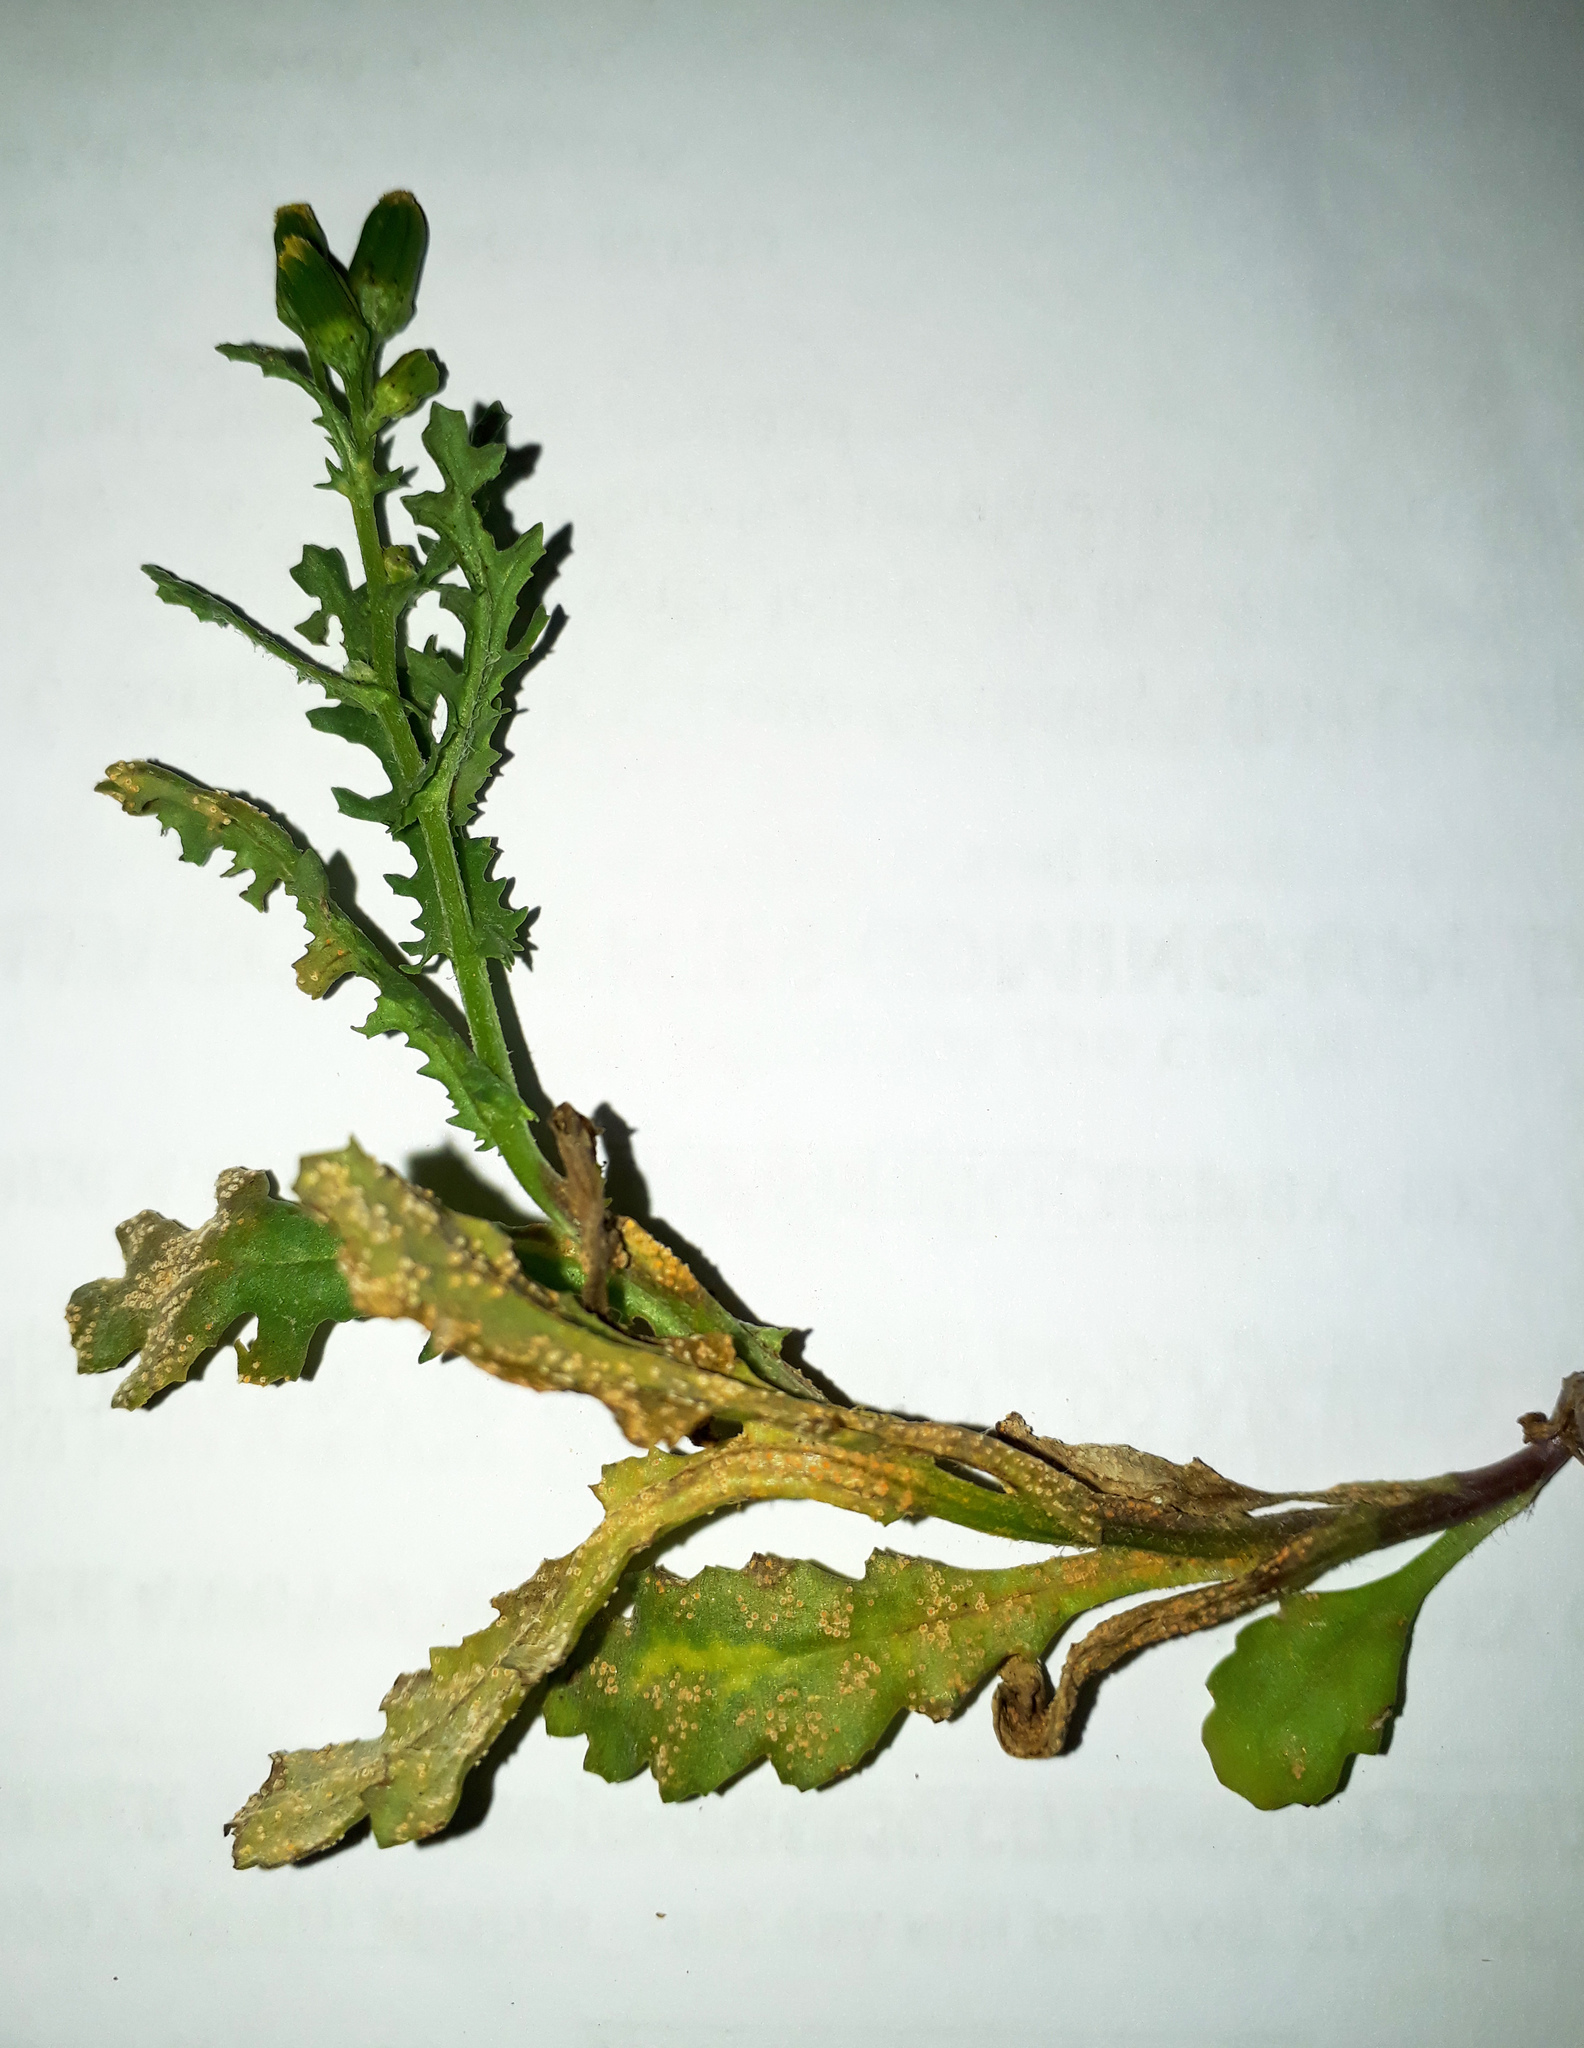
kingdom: Fungi
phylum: Basidiomycota
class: Pucciniomycetes
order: Pucciniales
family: Pucciniaceae
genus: Puccinia
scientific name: Puccinia lagenophorae
